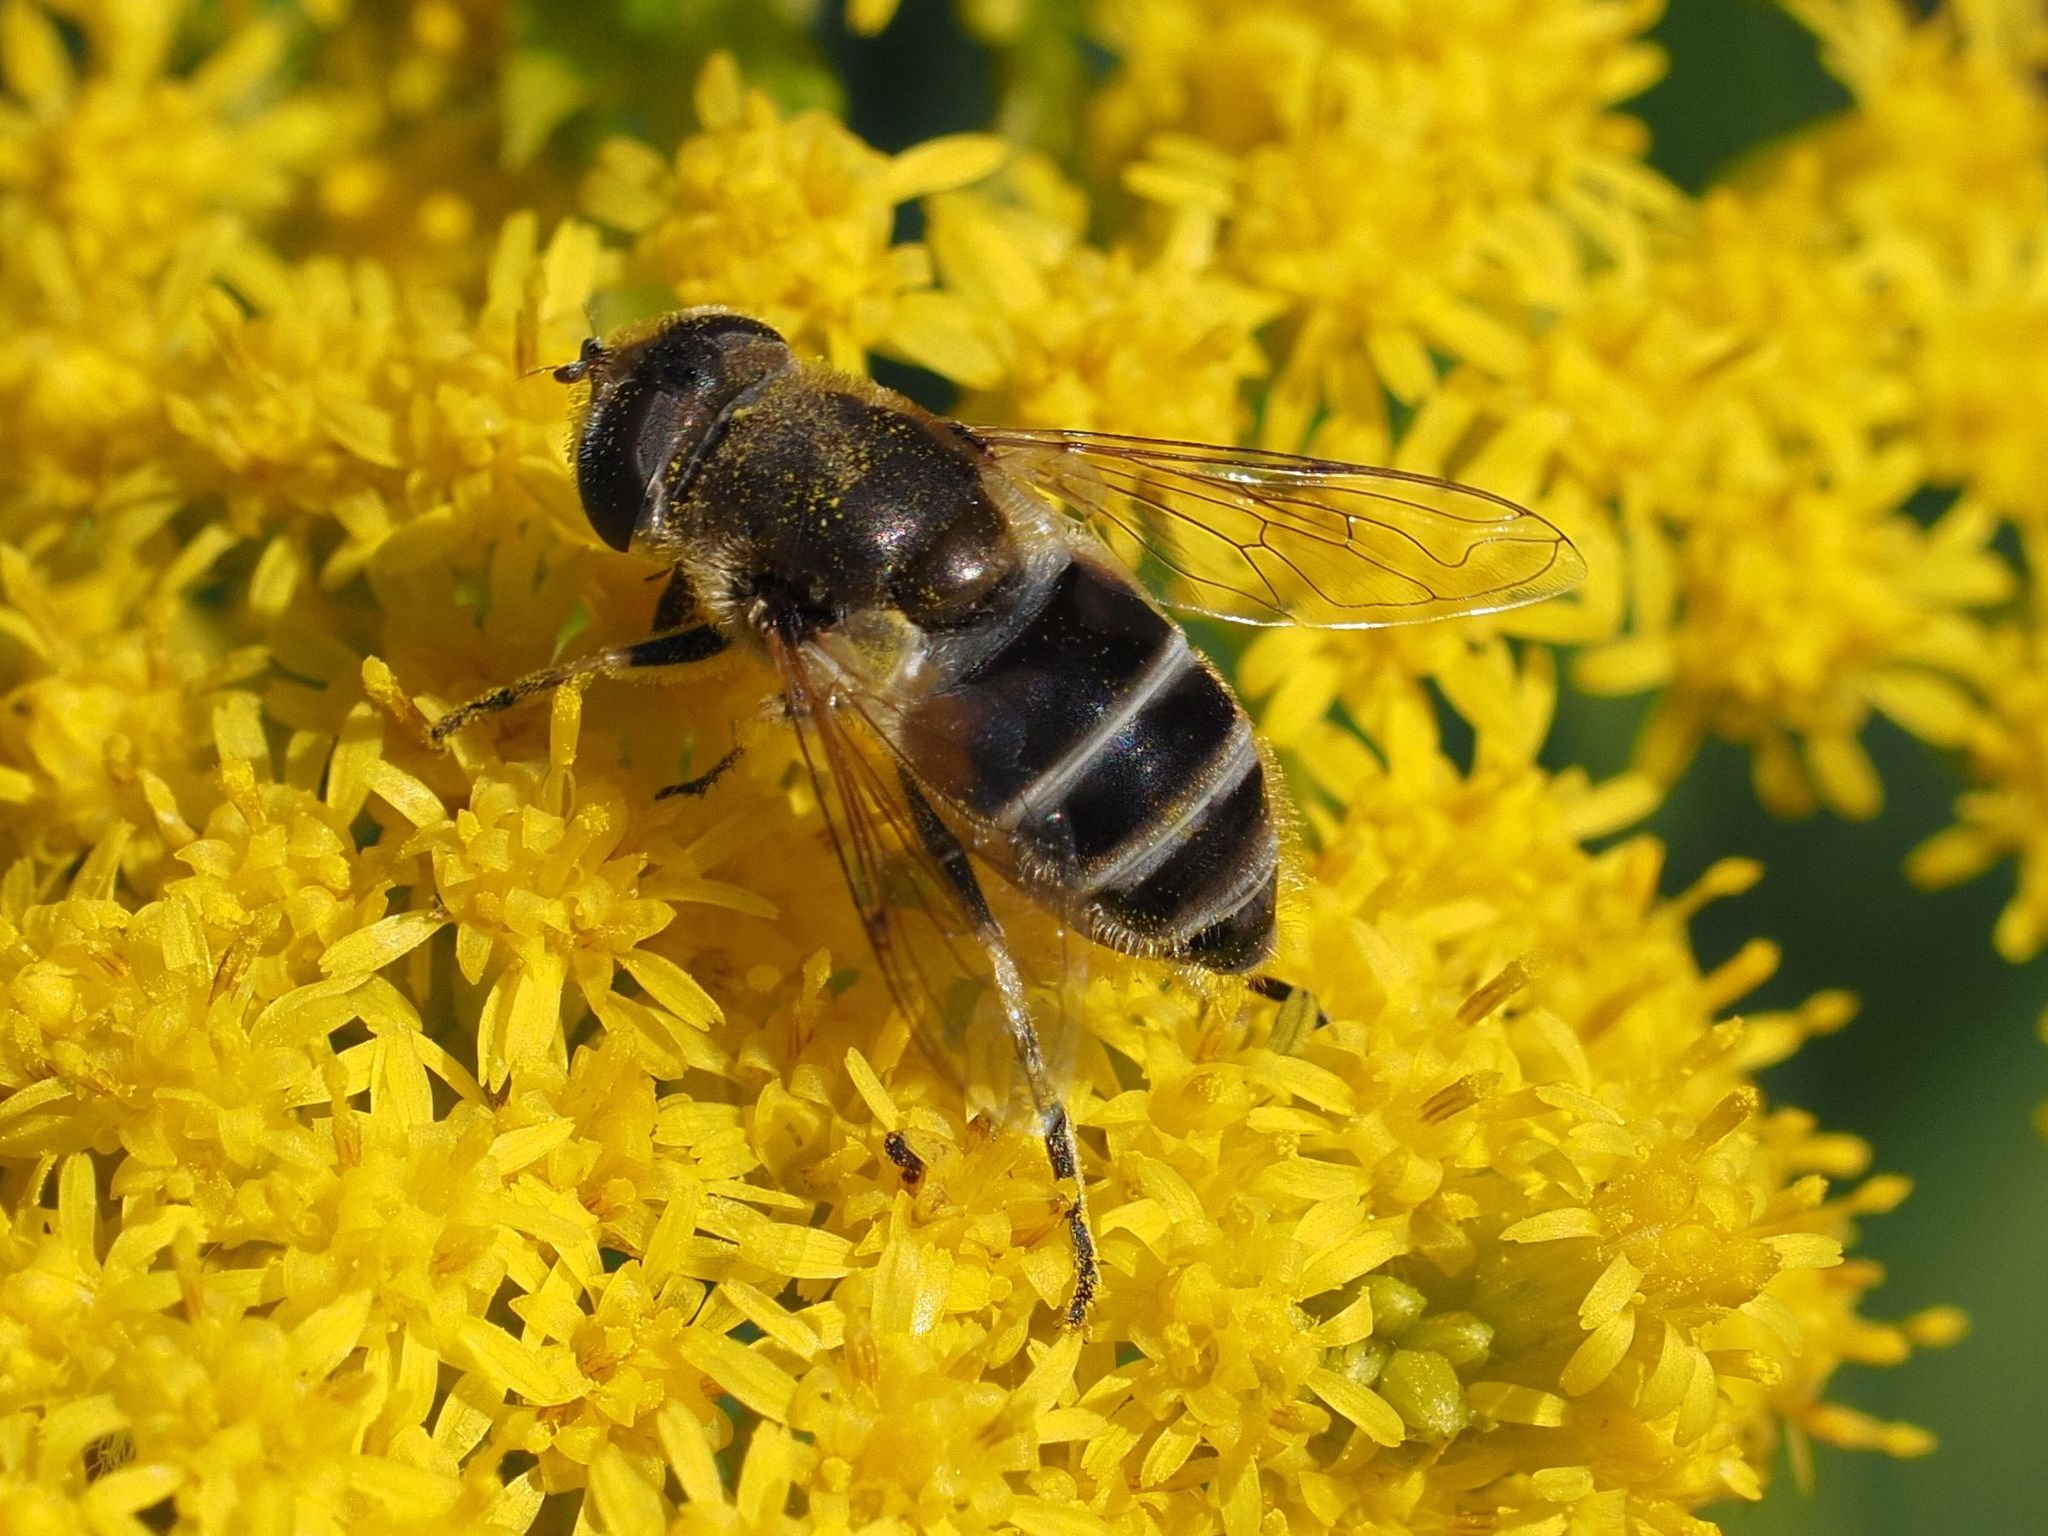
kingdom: Animalia
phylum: Arthropoda
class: Insecta
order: Diptera
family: Syrphidae
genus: Eristalis
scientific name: Eristalis arbustorum
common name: Hover fly
